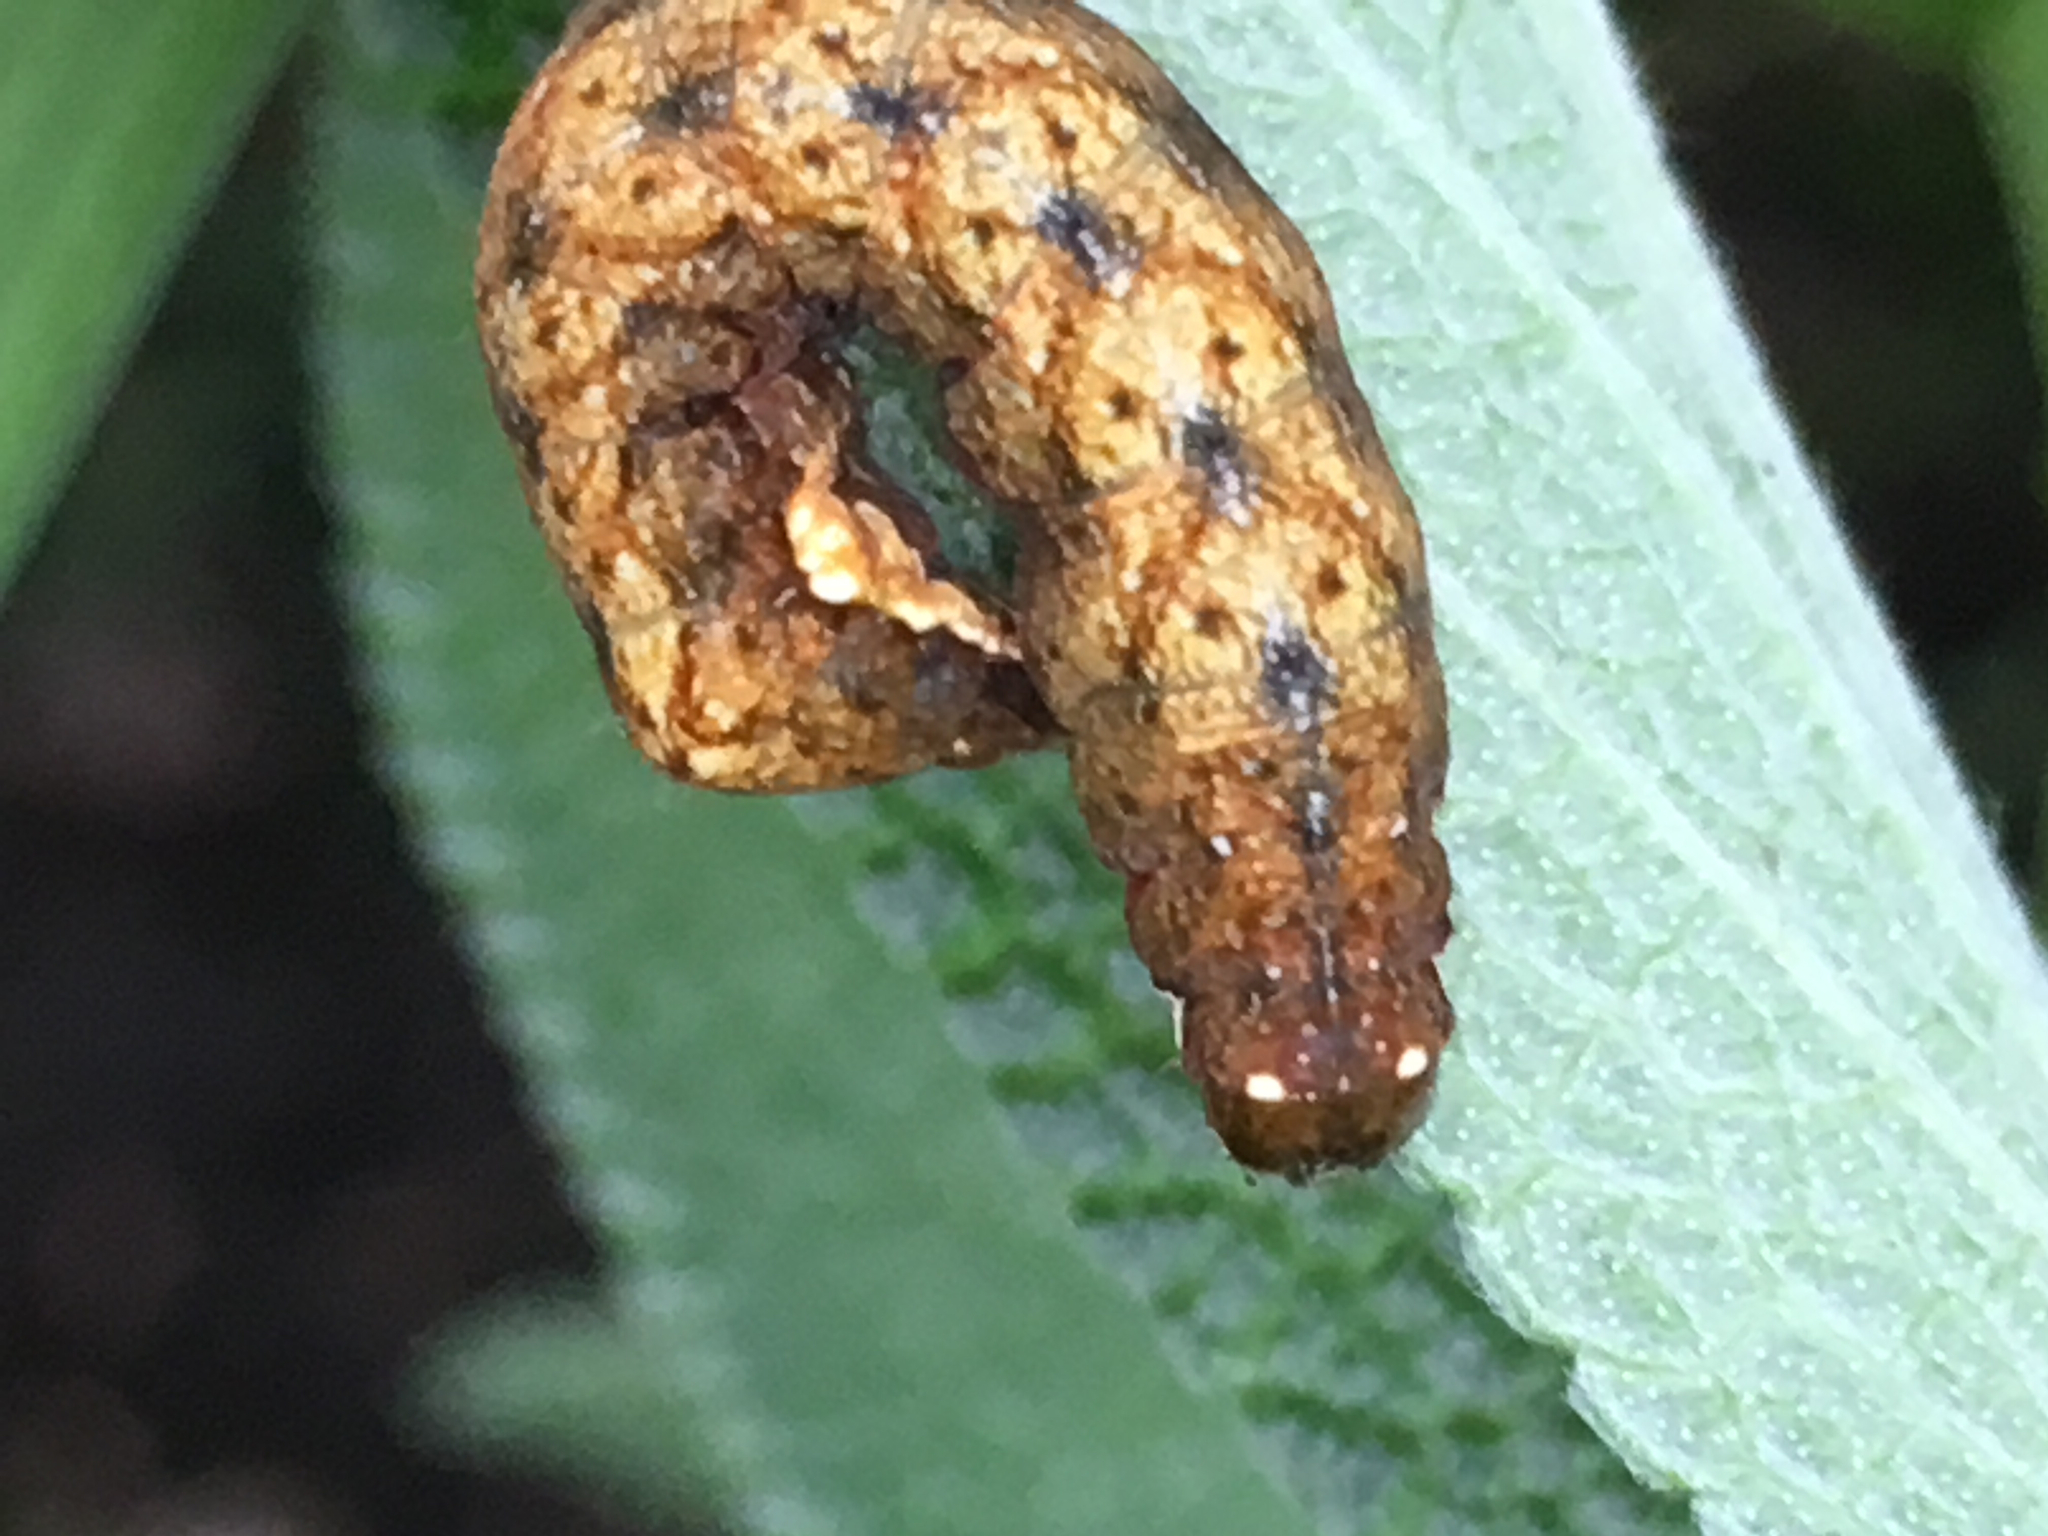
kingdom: Animalia
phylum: Arthropoda
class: Insecta
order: Lepidoptera
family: Noctuidae
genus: Hyppa
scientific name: Hyppa xylinoides
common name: Common hyppa moth
